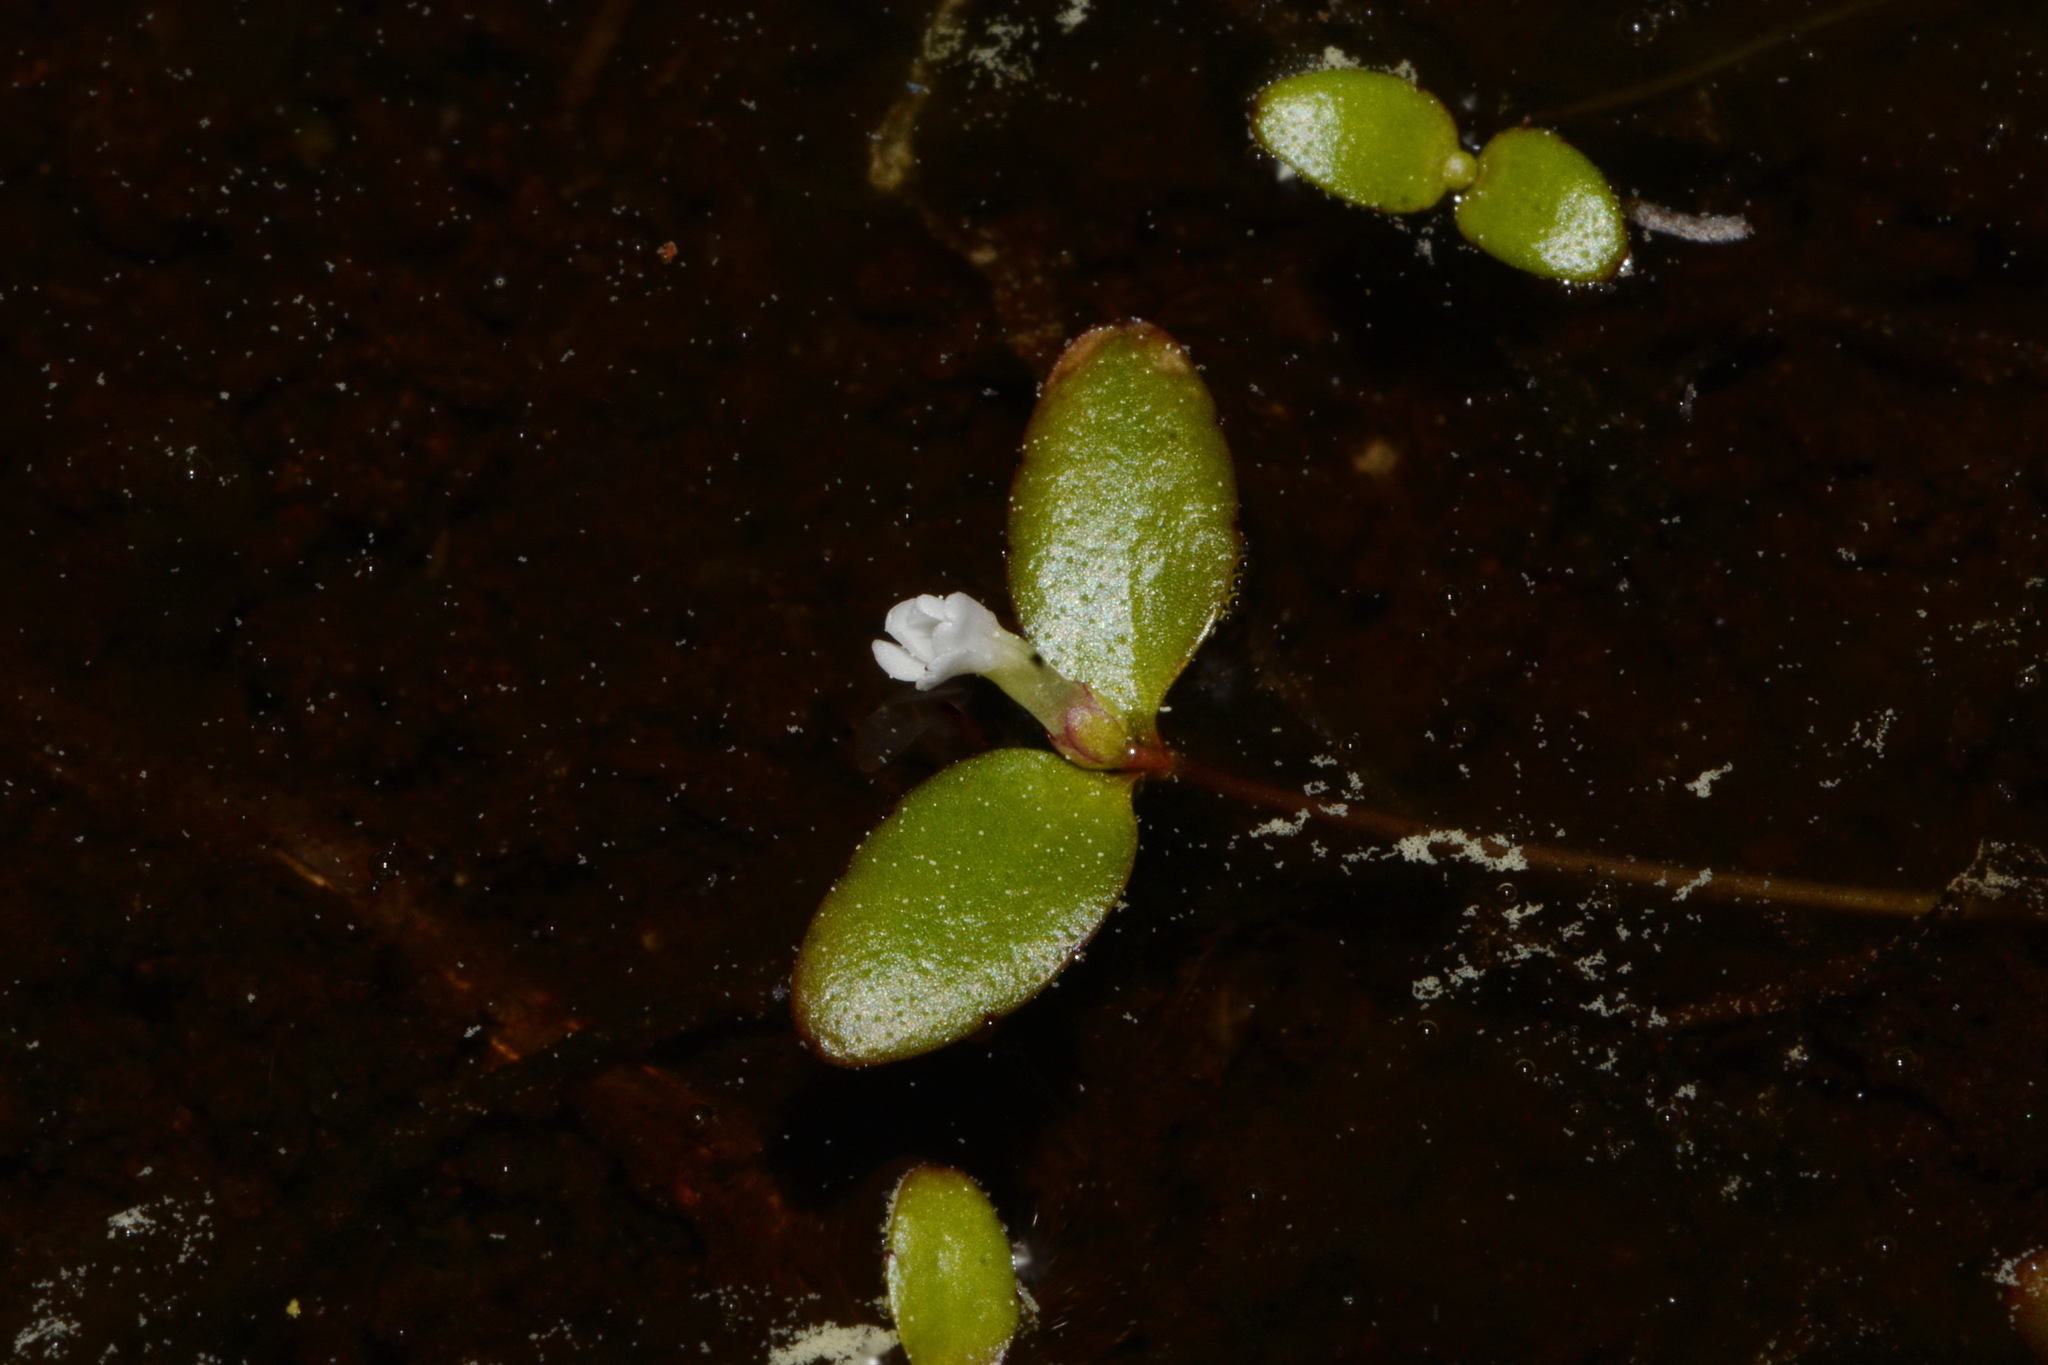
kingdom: Plantae
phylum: Tracheophyta
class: Magnoliopsida
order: Lamiales
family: Plantaginaceae
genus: Gratiola
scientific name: Gratiola amphiantha
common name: Little amphianthus
